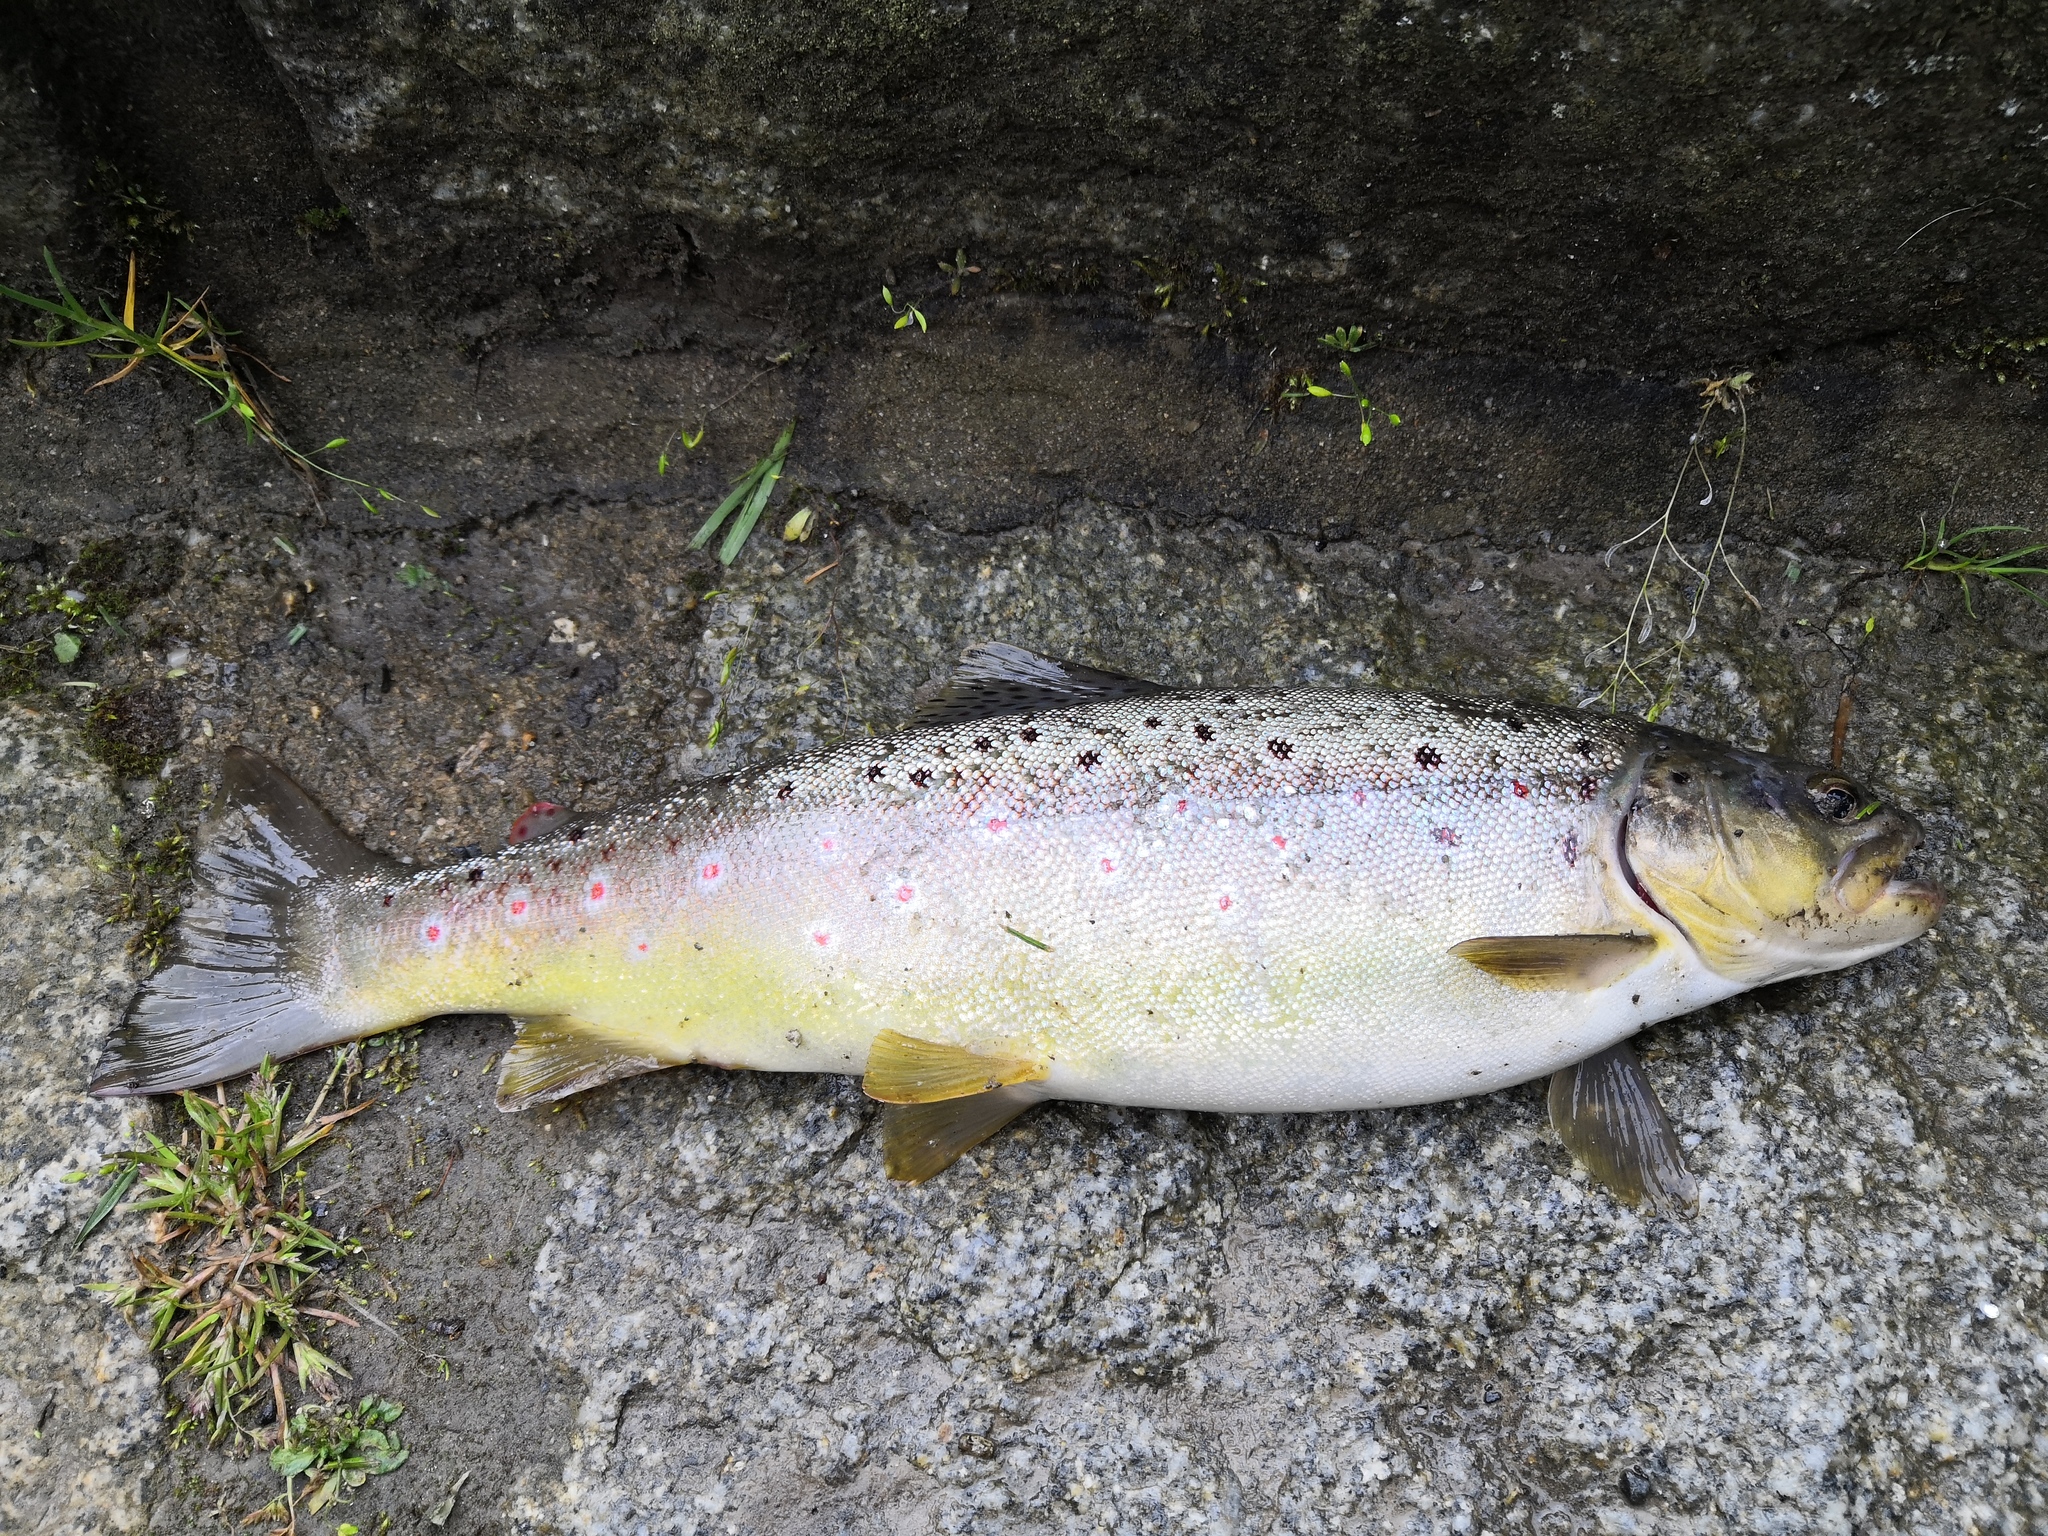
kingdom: Animalia
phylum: Chordata
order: Salmoniformes
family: Salmonidae
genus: Salmo
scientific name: Salmo trutta
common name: Brown trout
